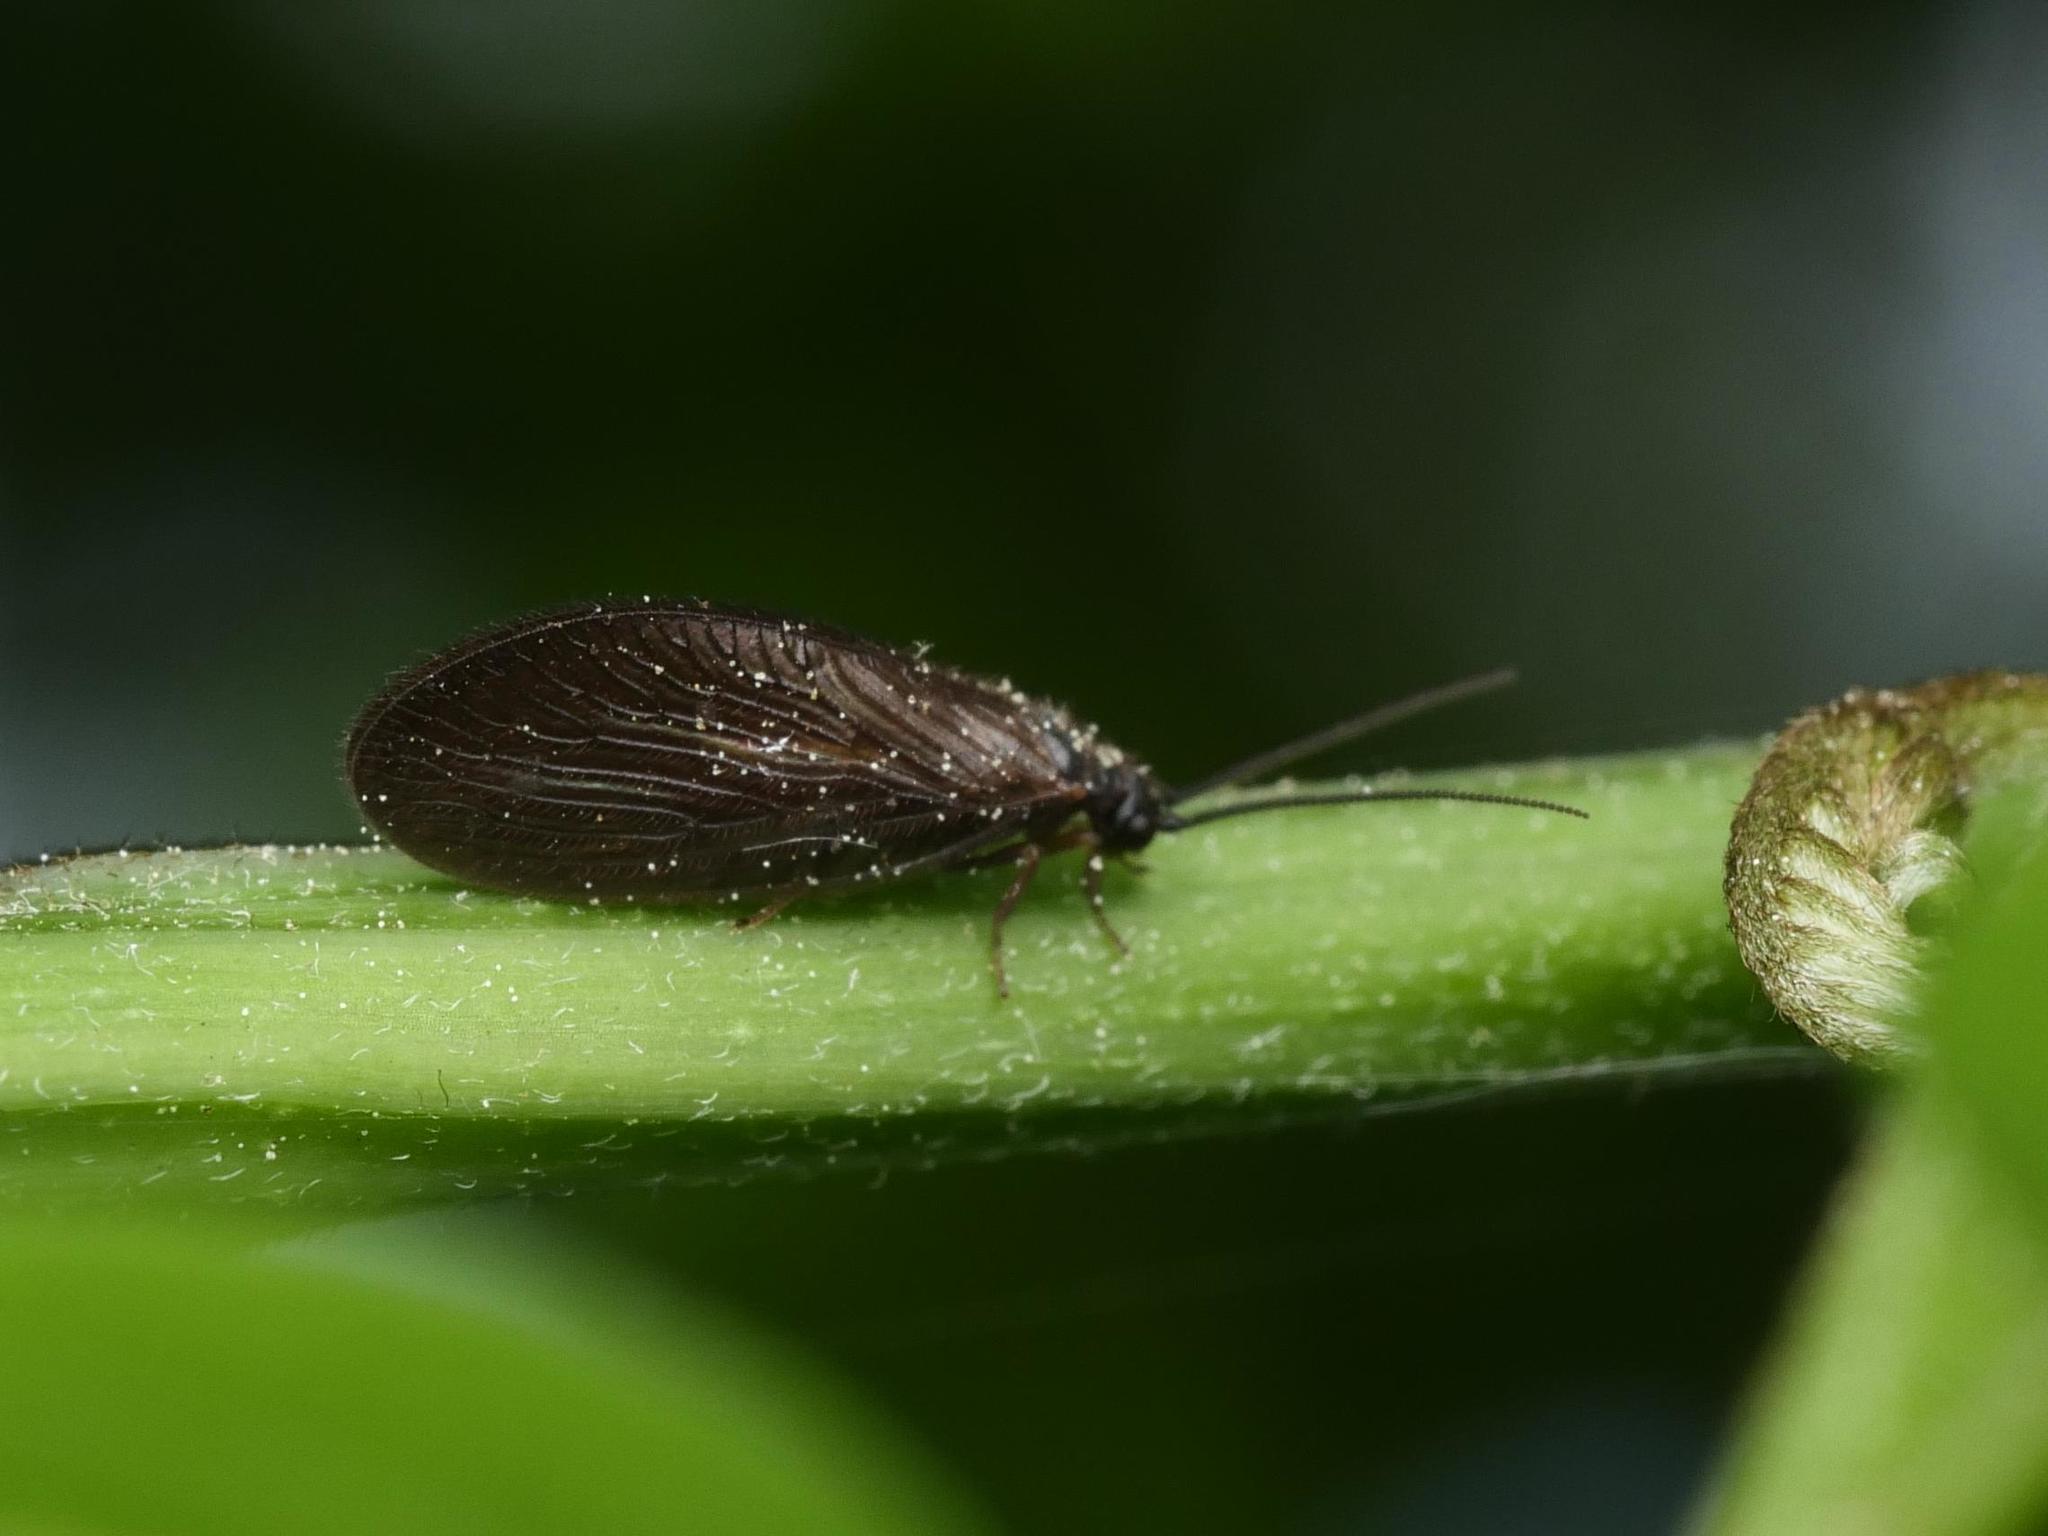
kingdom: Animalia
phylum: Arthropoda
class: Insecta
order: Neuroptera
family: Sisyridae
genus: Sisyra
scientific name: Sisyra nigra
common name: Black spongillafly
